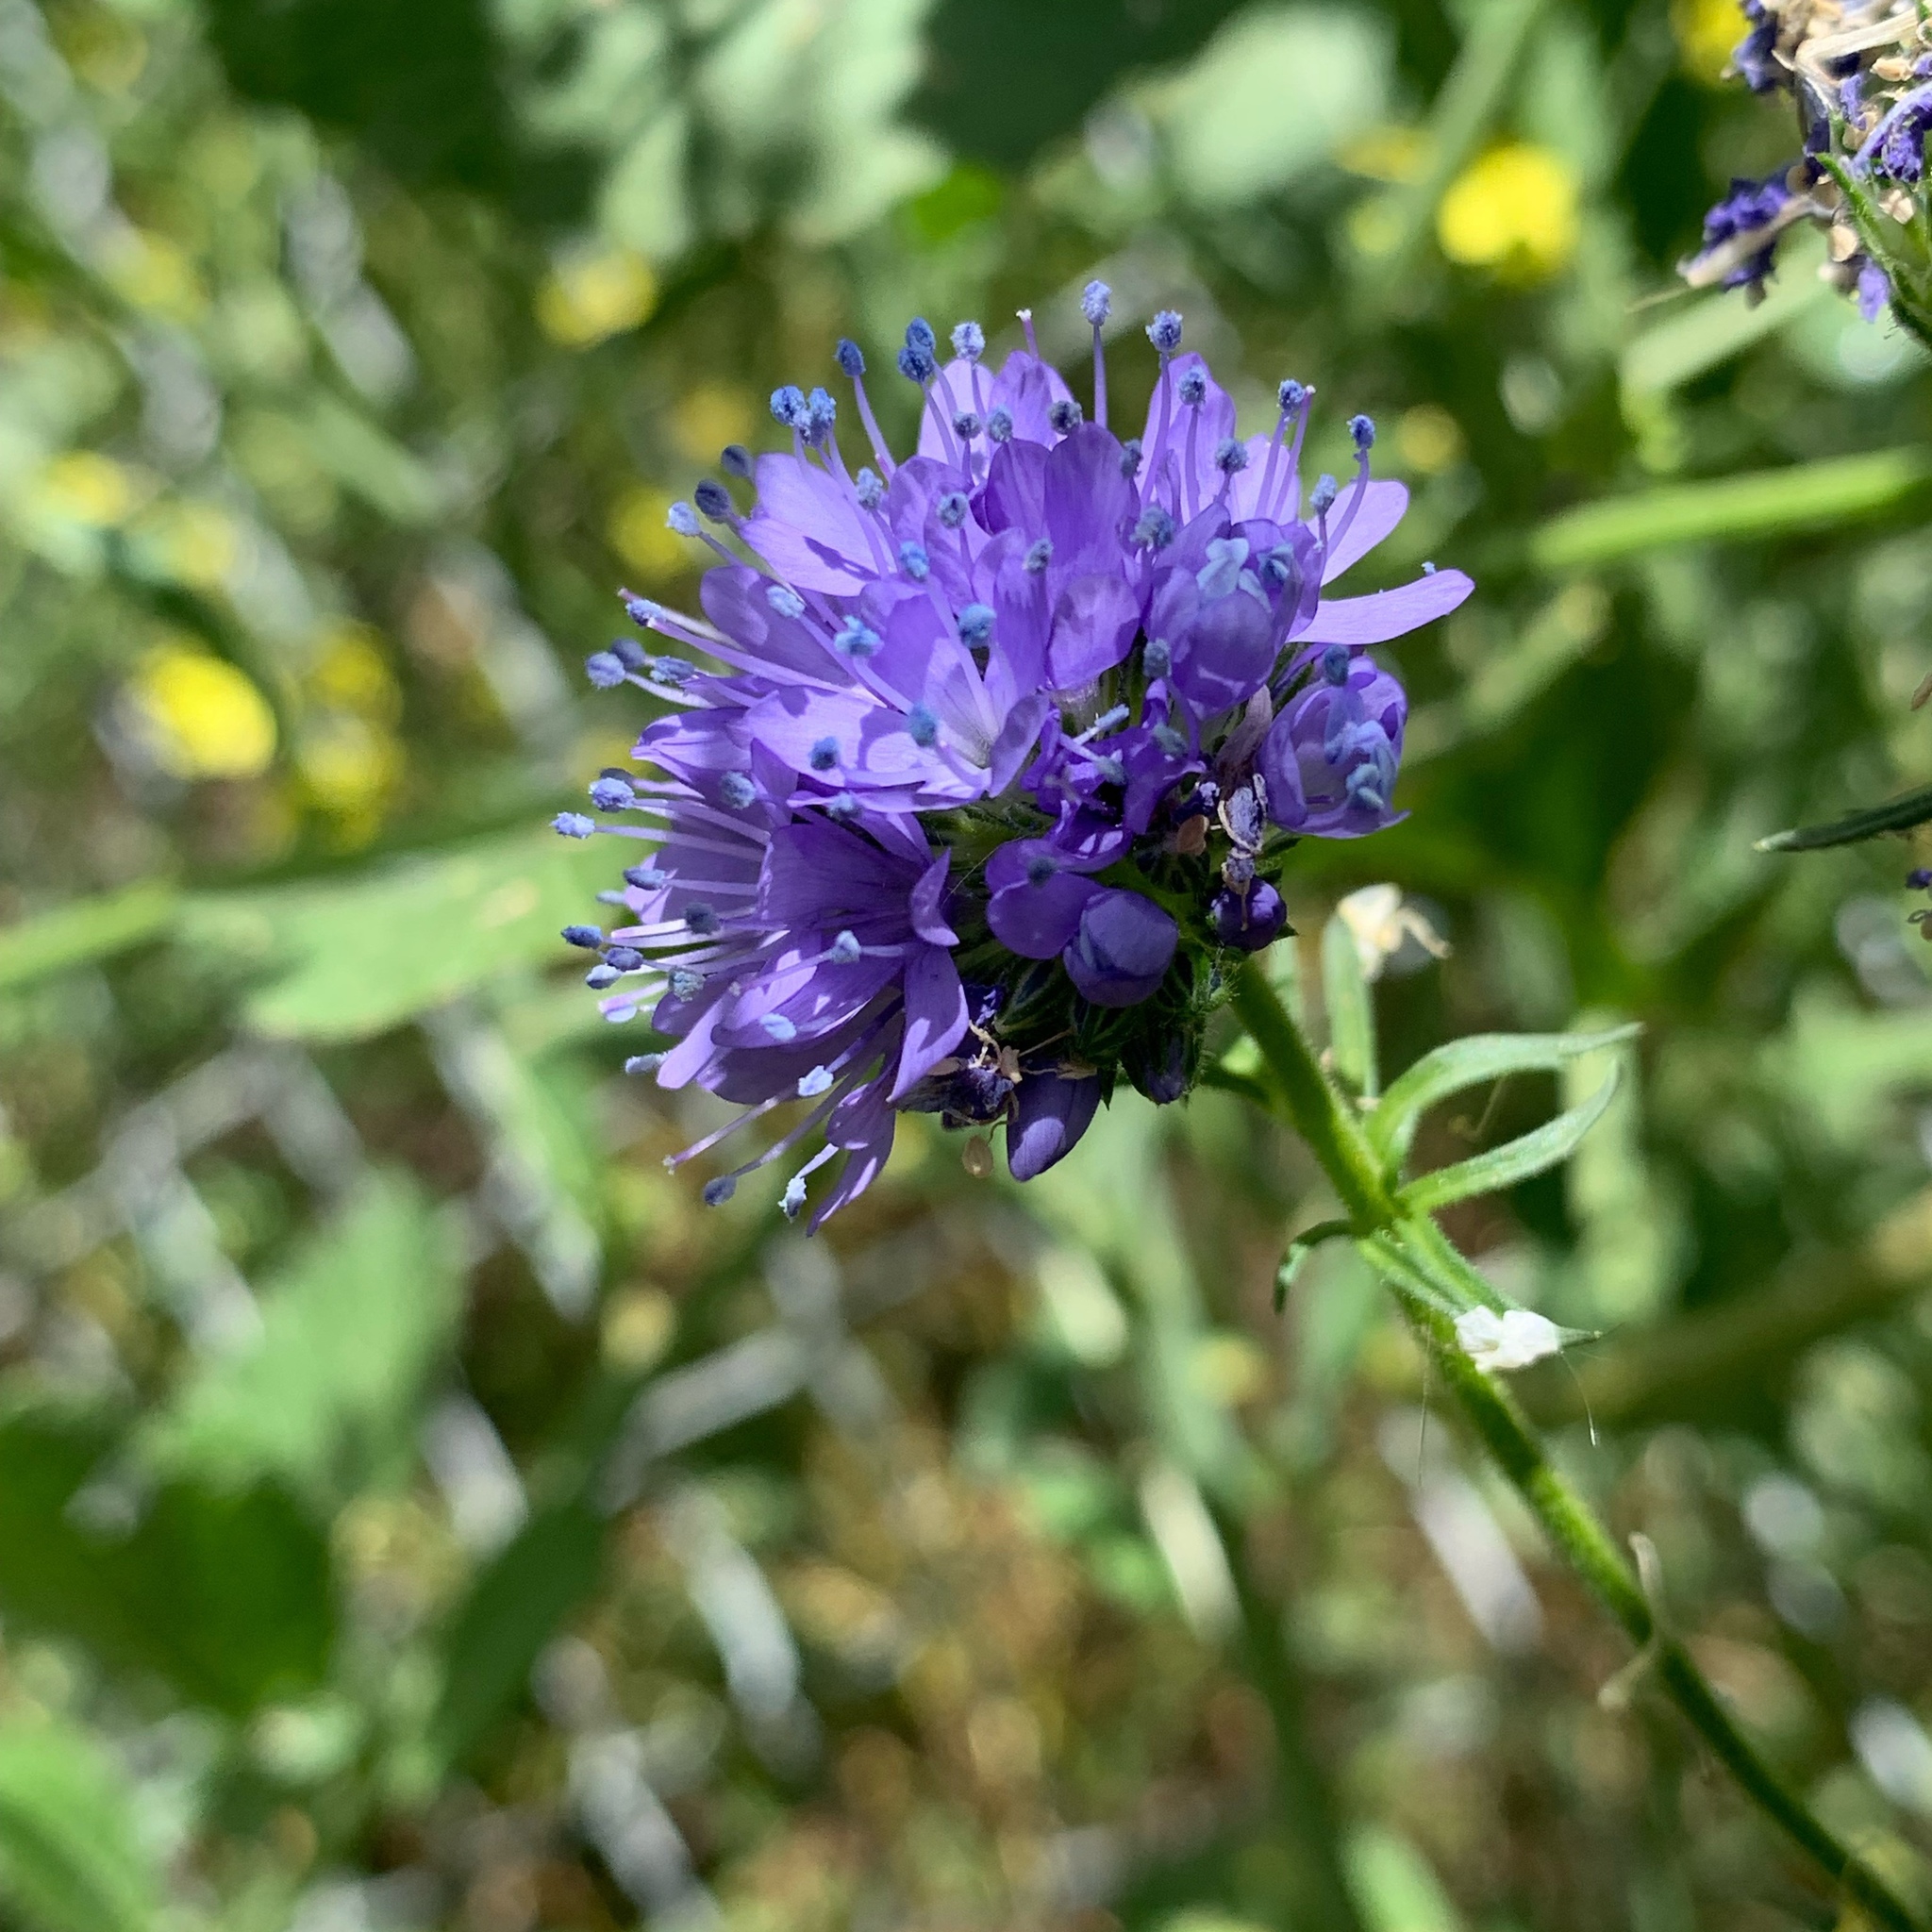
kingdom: Plantae
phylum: Tracheophyta
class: Magnoliopsida
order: Ericales
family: Polemoniaceae
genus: Gilia
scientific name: Gilia capitata
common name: Bluehead gilia
